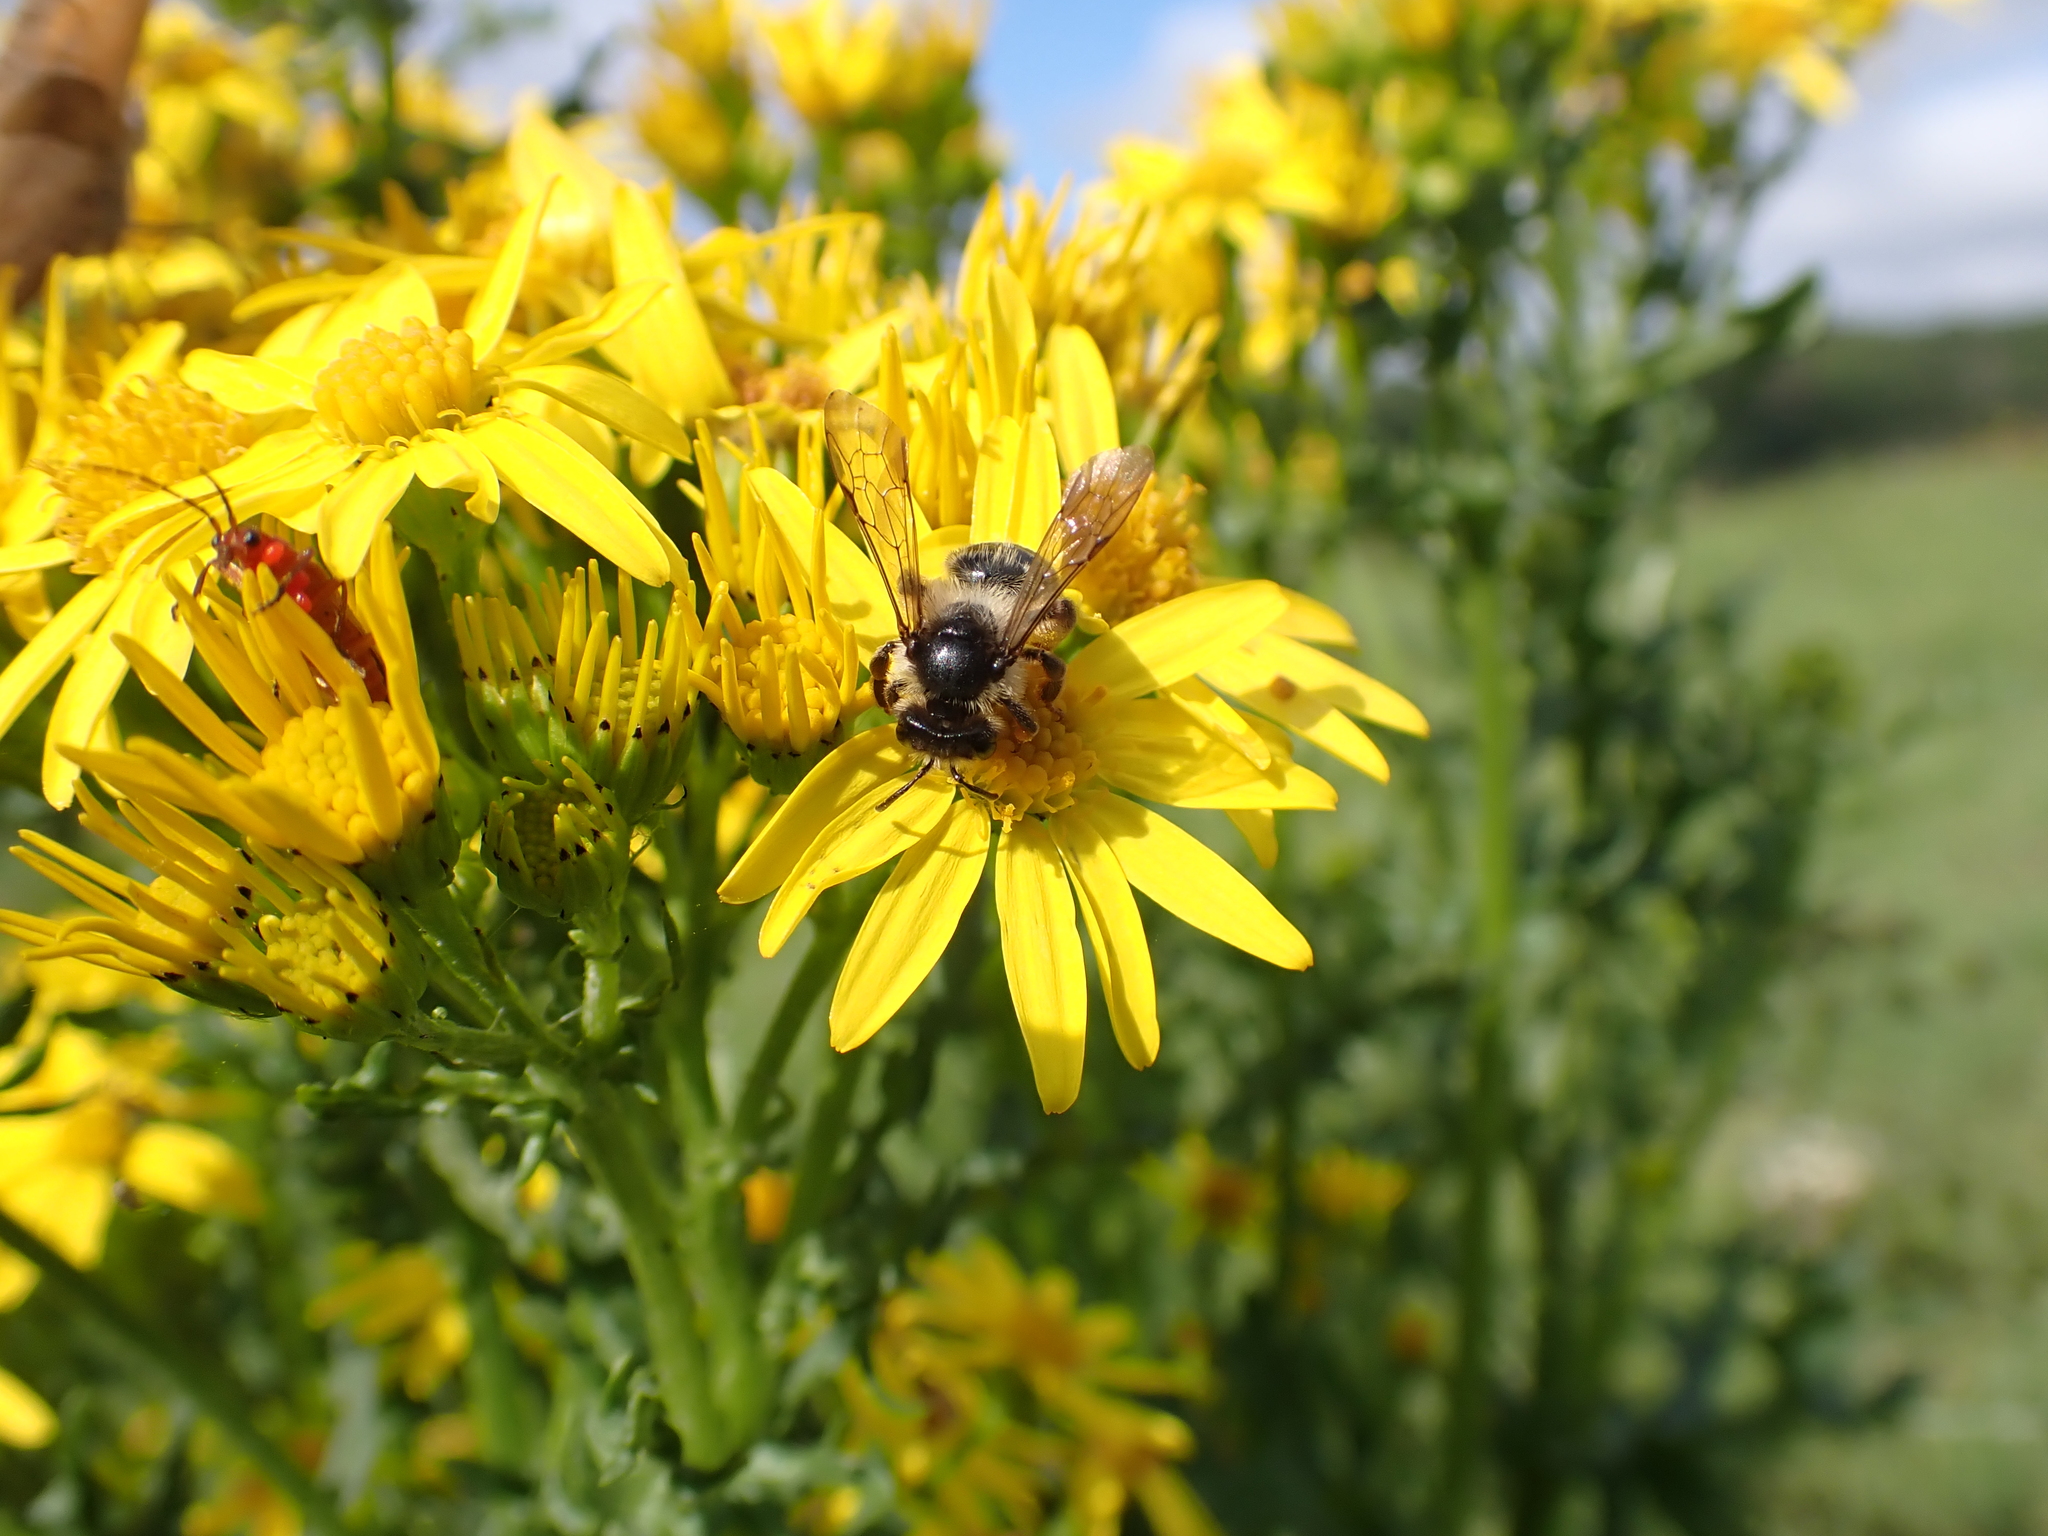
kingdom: Animalia
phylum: Arthropoda
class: Insecta
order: Hymenoptera
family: Andrenidae
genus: Andrena
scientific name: Andrena denticulata
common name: Grey-banded mining bee
